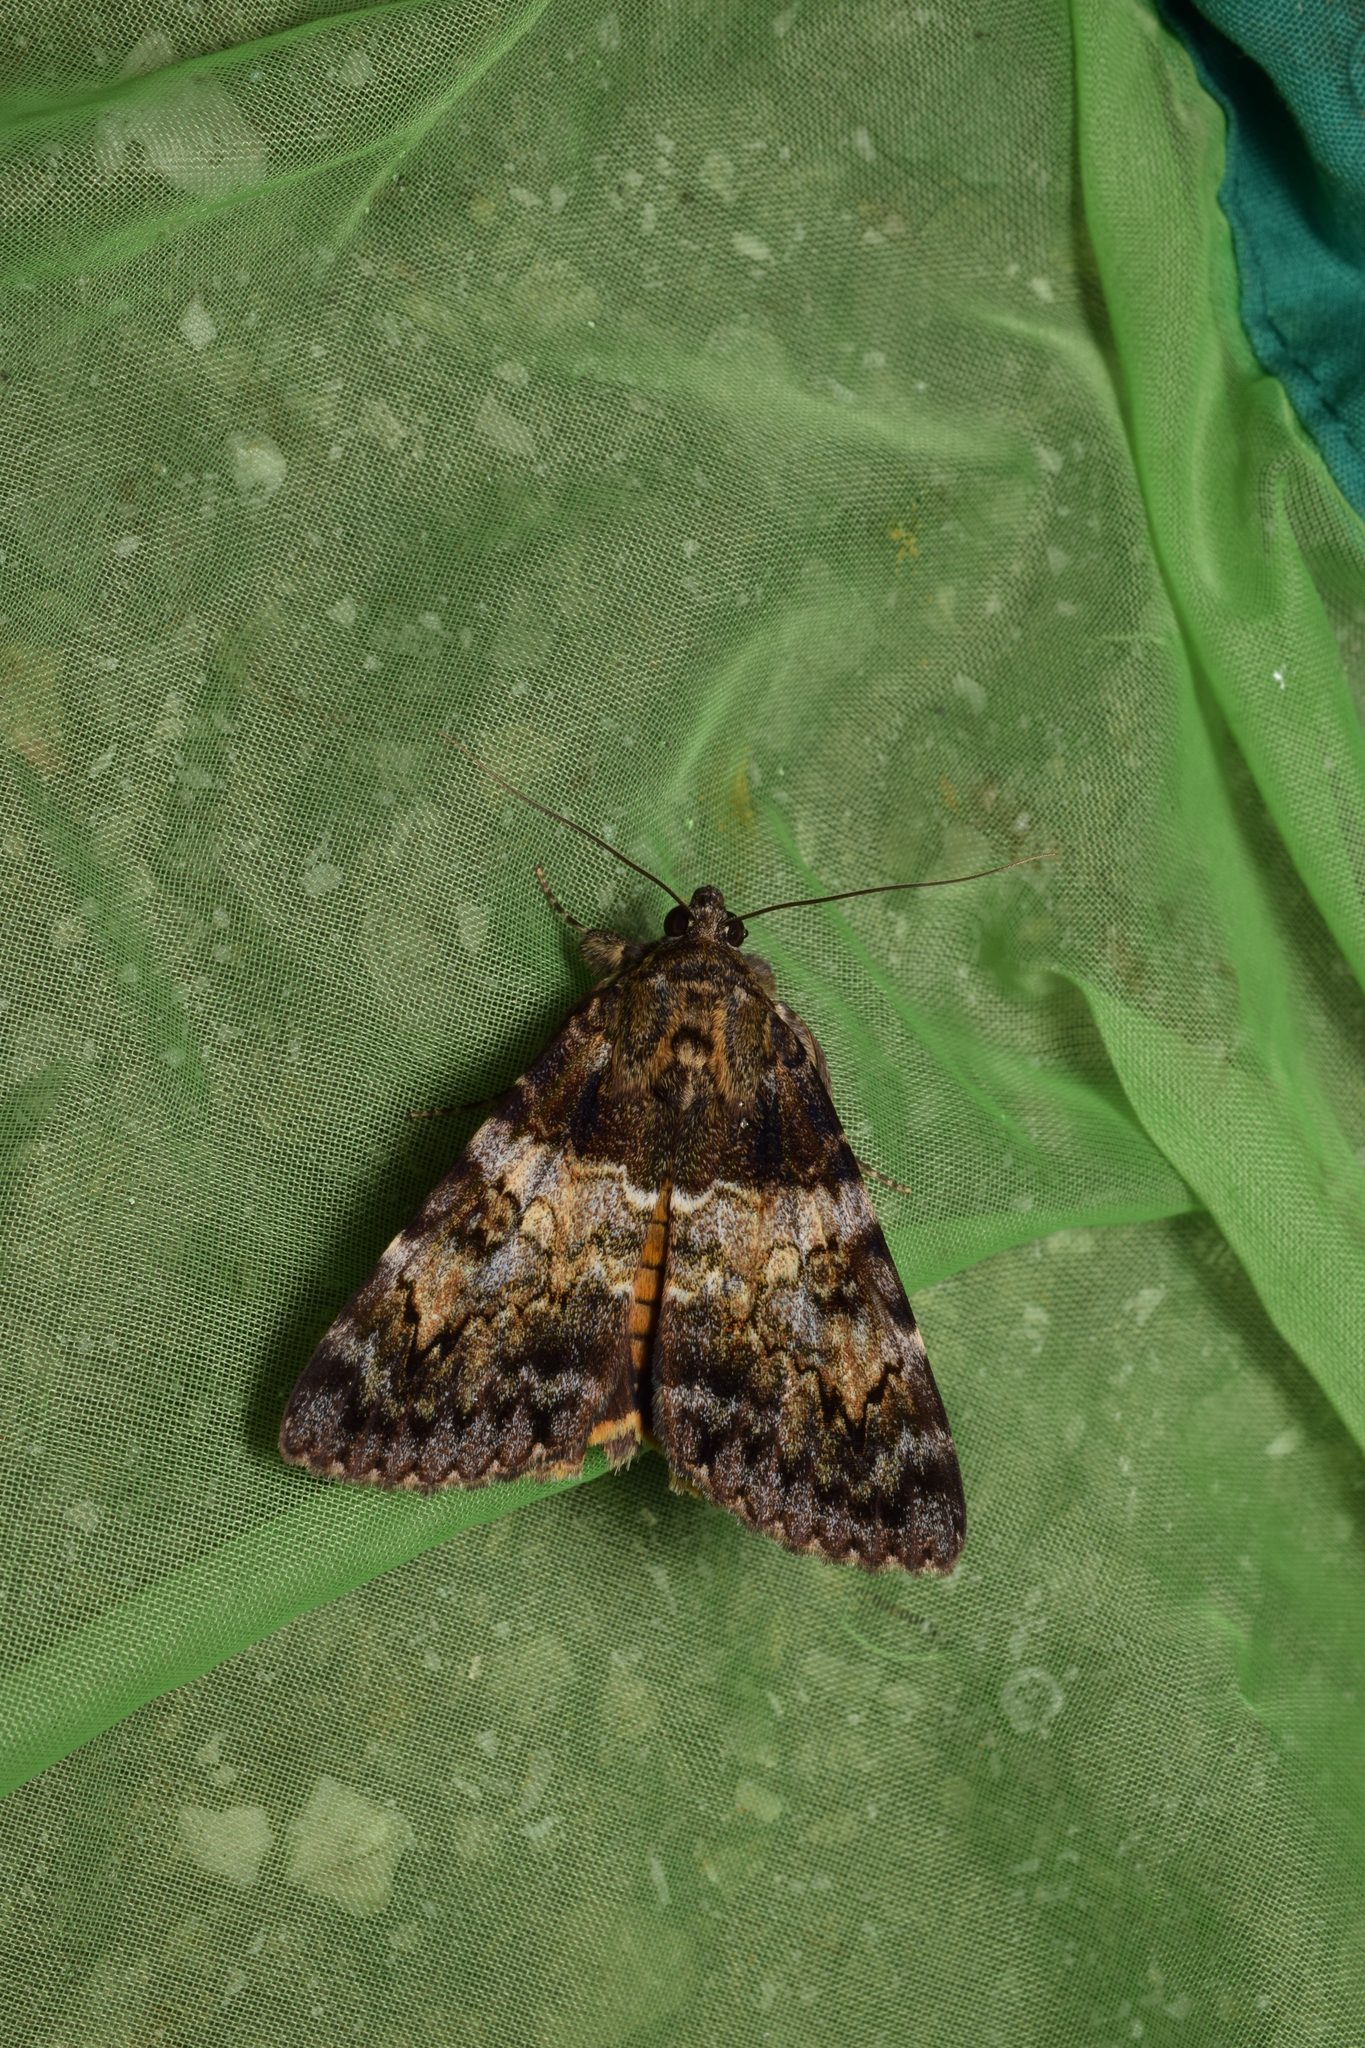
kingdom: Animalia
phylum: Arthropoda
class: Insecta
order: Lepidoptera
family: Erebidae
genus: Catocala
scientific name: Catocala praegnax
